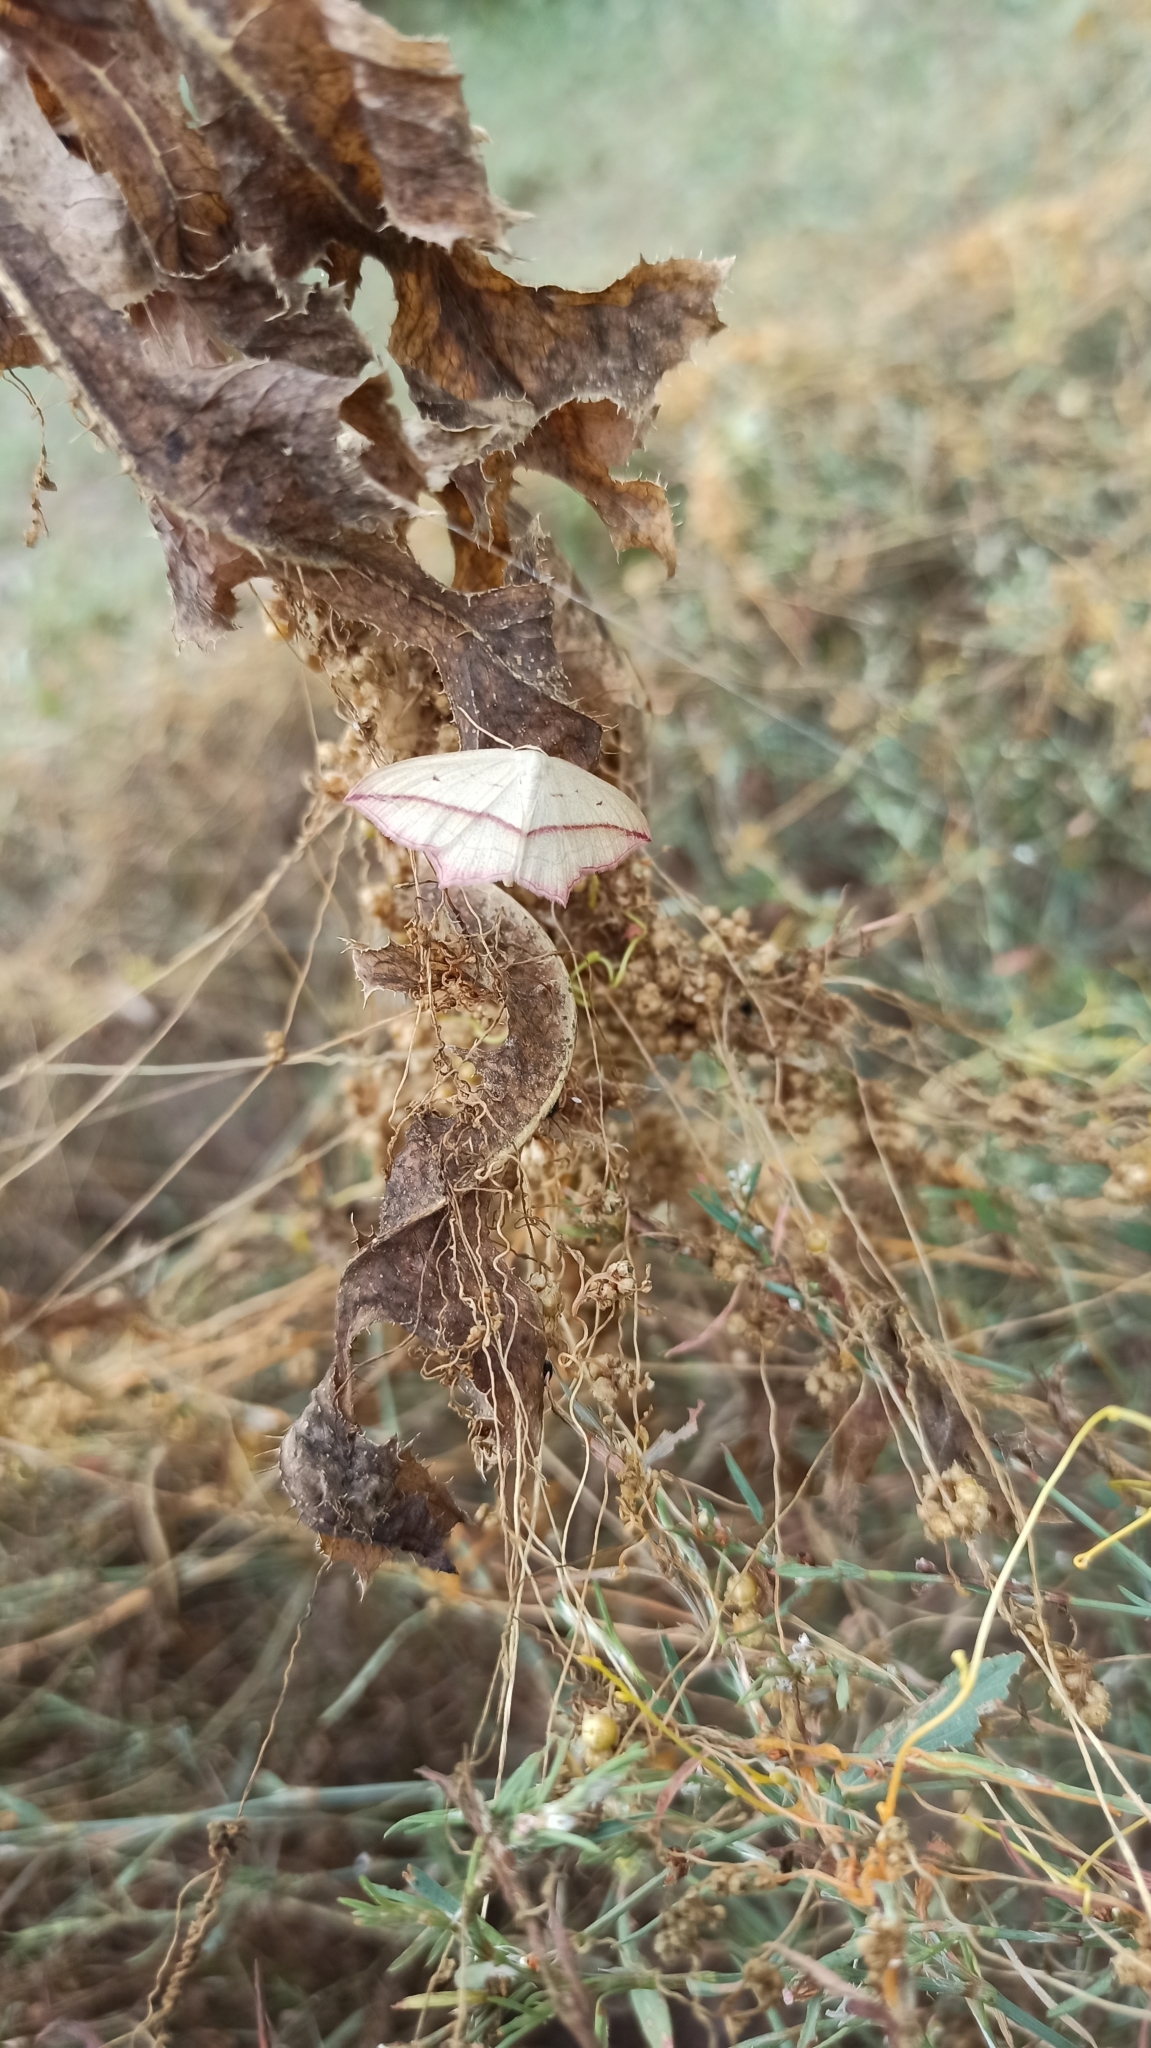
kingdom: Animalia
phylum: Arthropoda
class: Insecta
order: Lepidoptera
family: Geometridae
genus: Timandra
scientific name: Timandra comae
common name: Blood-vein
